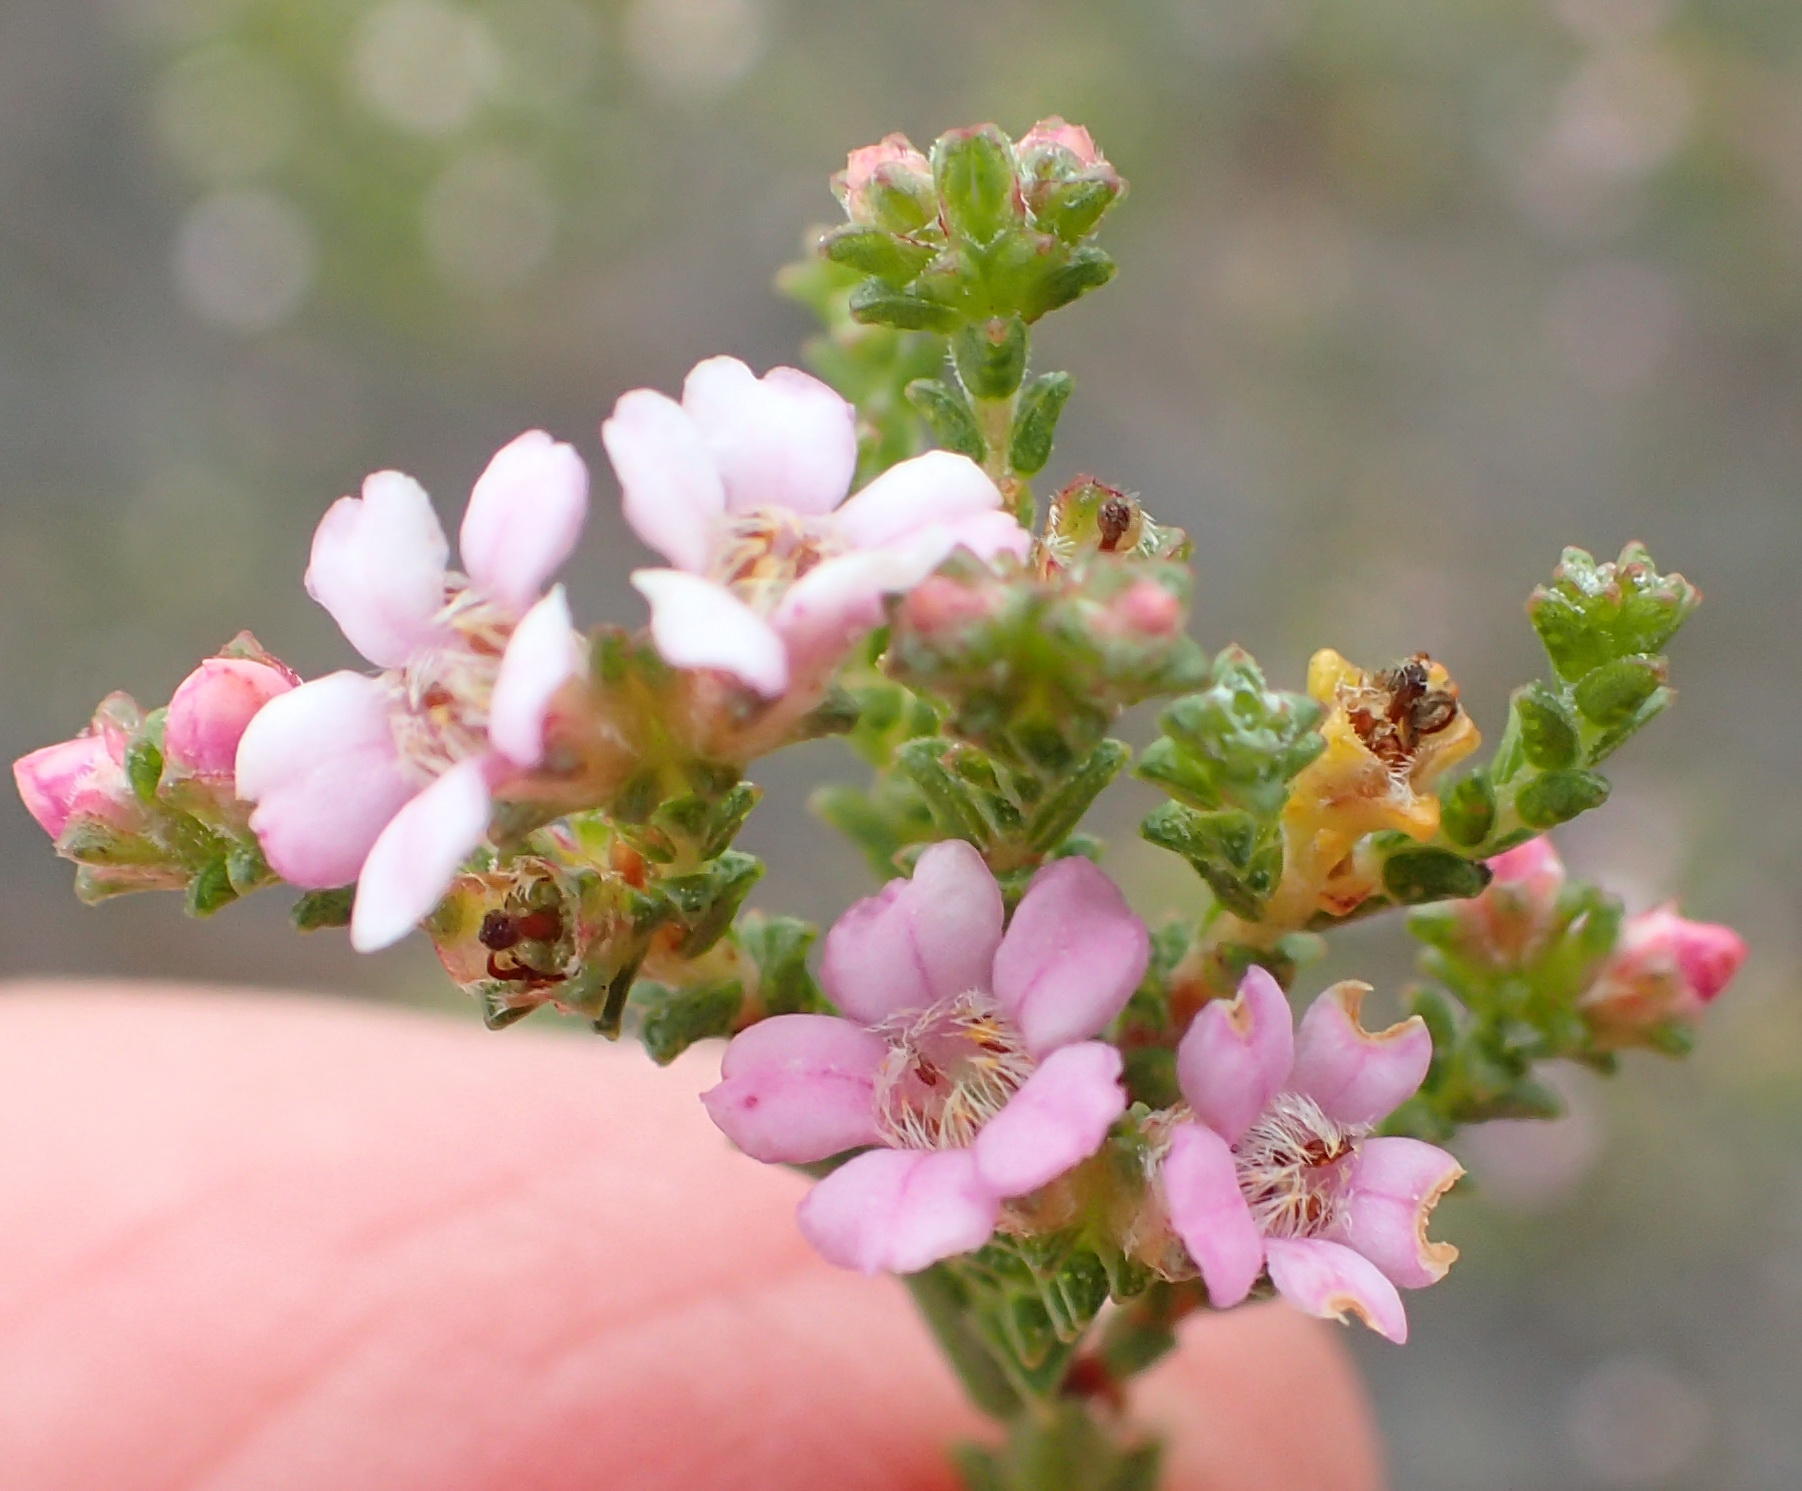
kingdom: Plantae
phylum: Tracheophyta
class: Magnoliopsida
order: Sapindales
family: Rutaceae
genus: Euchaetis
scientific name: Euchaetis albertiniana
